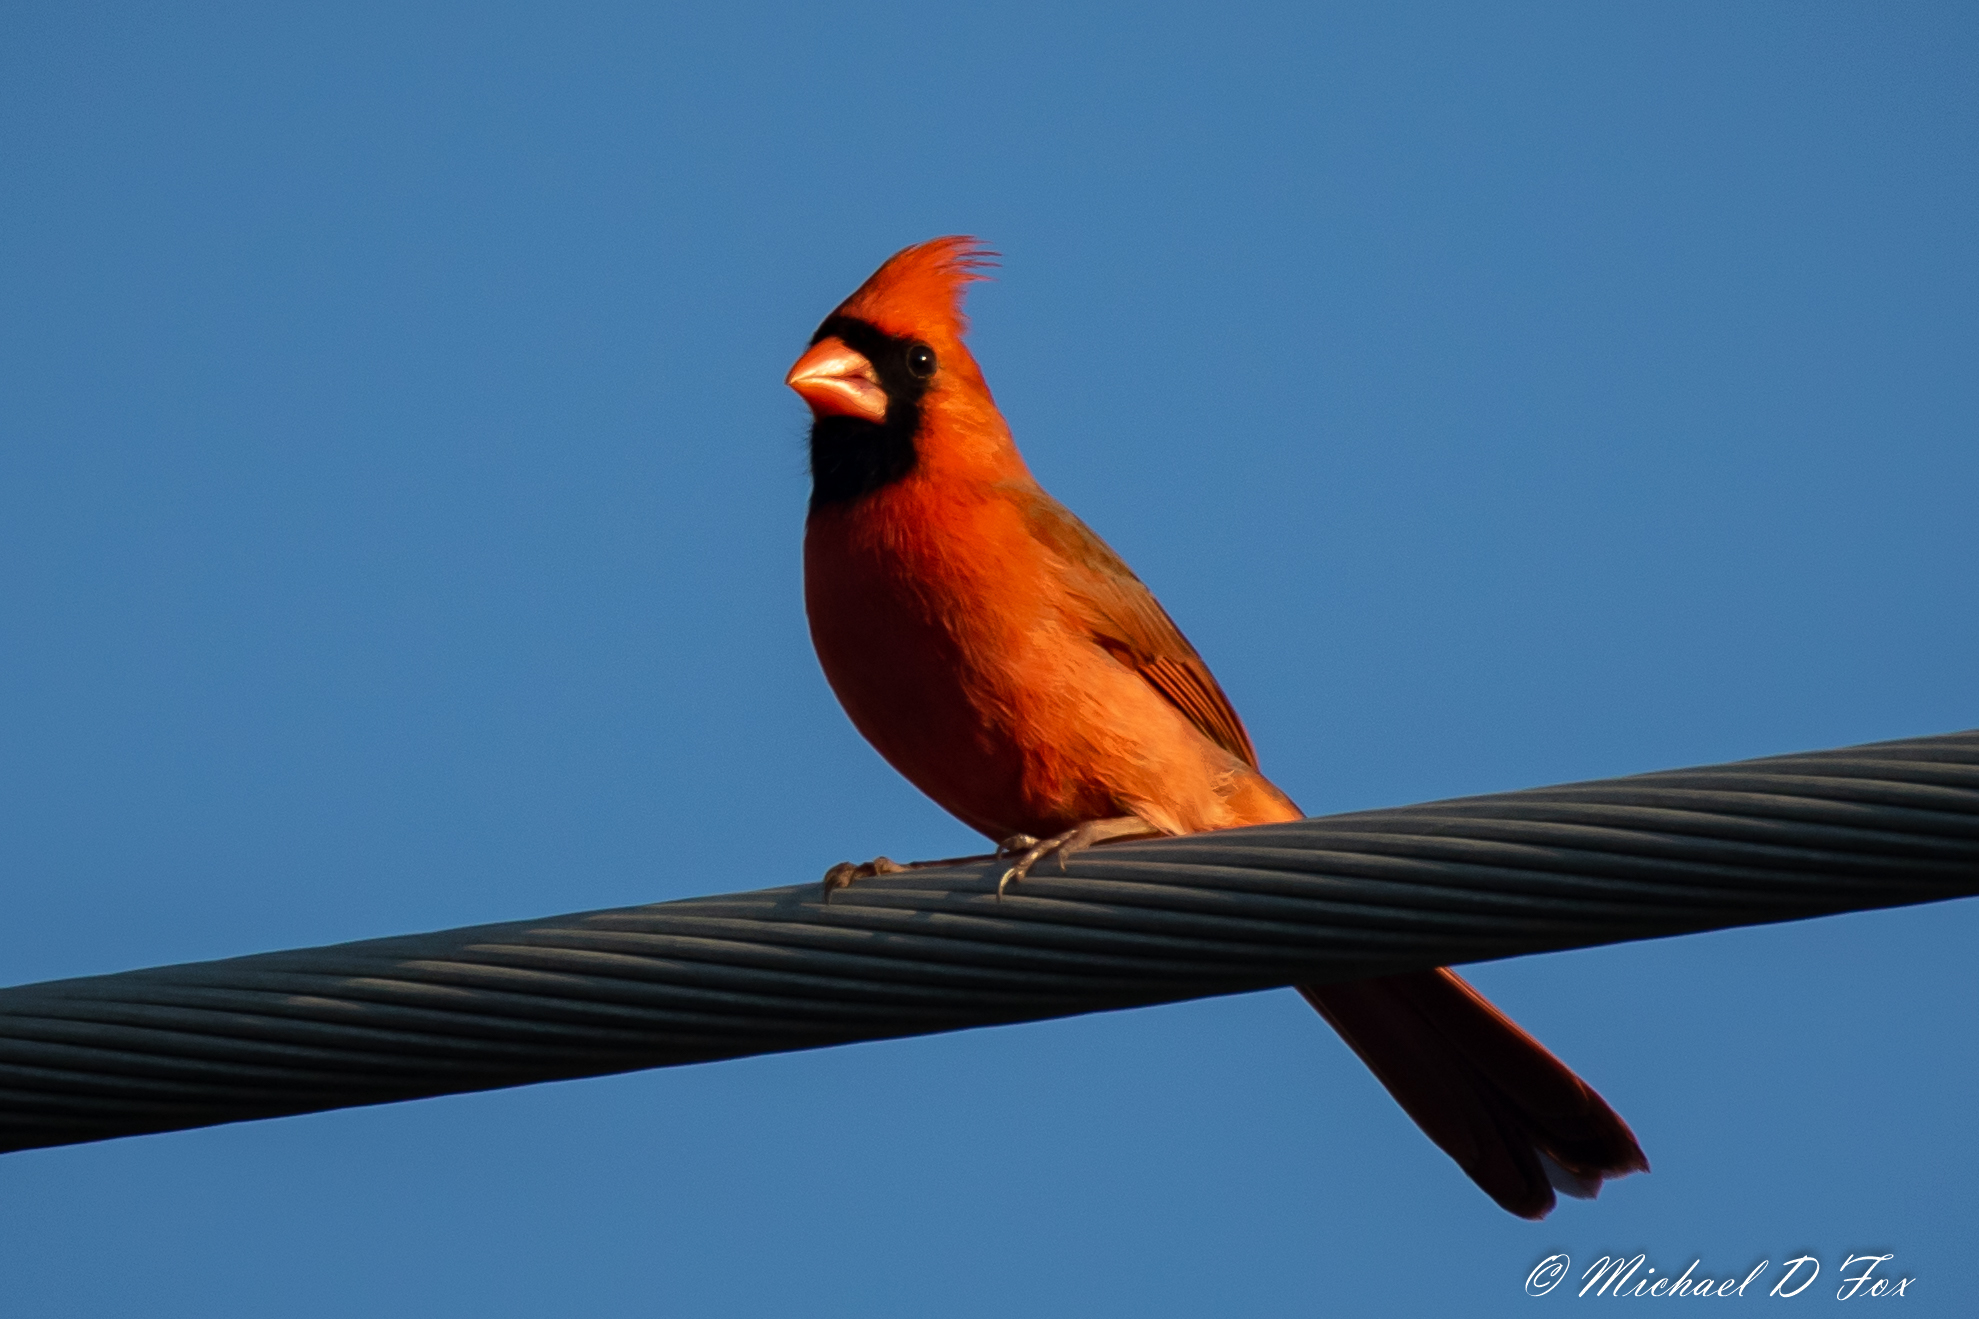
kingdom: Animalia
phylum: Chordata
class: Aves
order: Passeriformes
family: Cardinalidae
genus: Cardinalis
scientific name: Cardinalis cardinalis
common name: Northern cardinal
